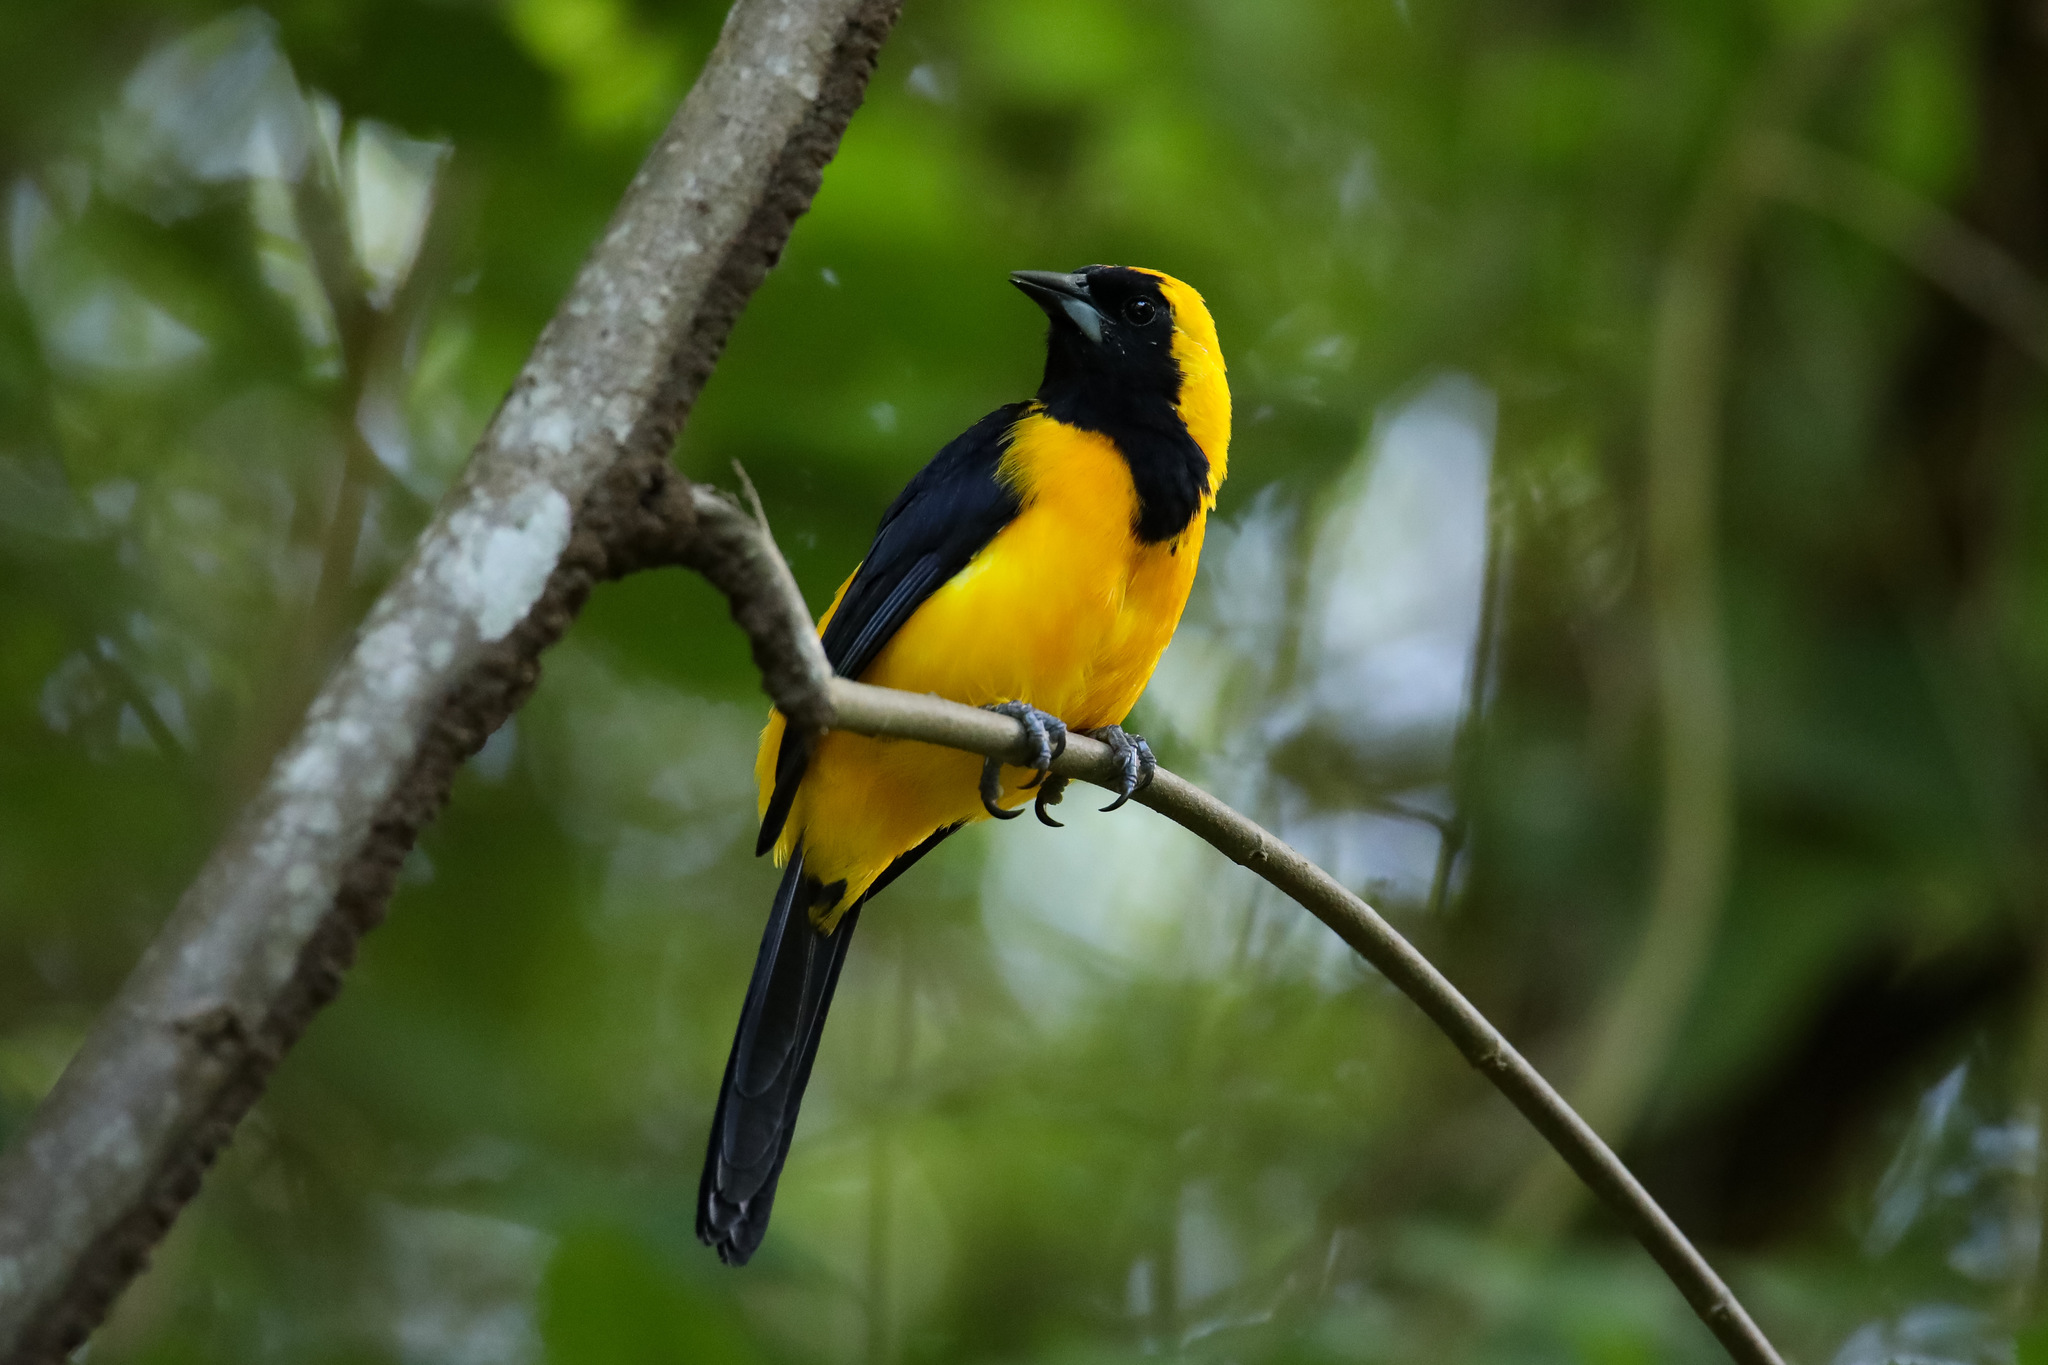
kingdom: Animalia
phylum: Chordata
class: Aves
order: Passeriformes
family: Icteridae
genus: Icterus
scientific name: Icterus chrysater
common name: Yellow-backed oriole
